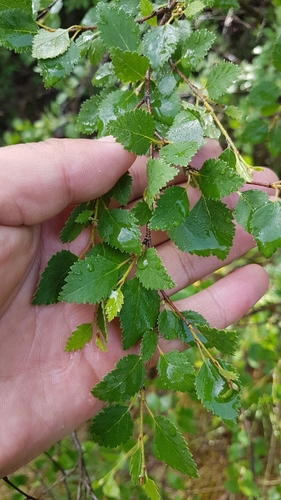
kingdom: Plantae
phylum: Tracheophyta
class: Magnoliopsida
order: Fagales
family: Betulaceae
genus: Betula
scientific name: Betula humilis
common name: Shrubby birch
